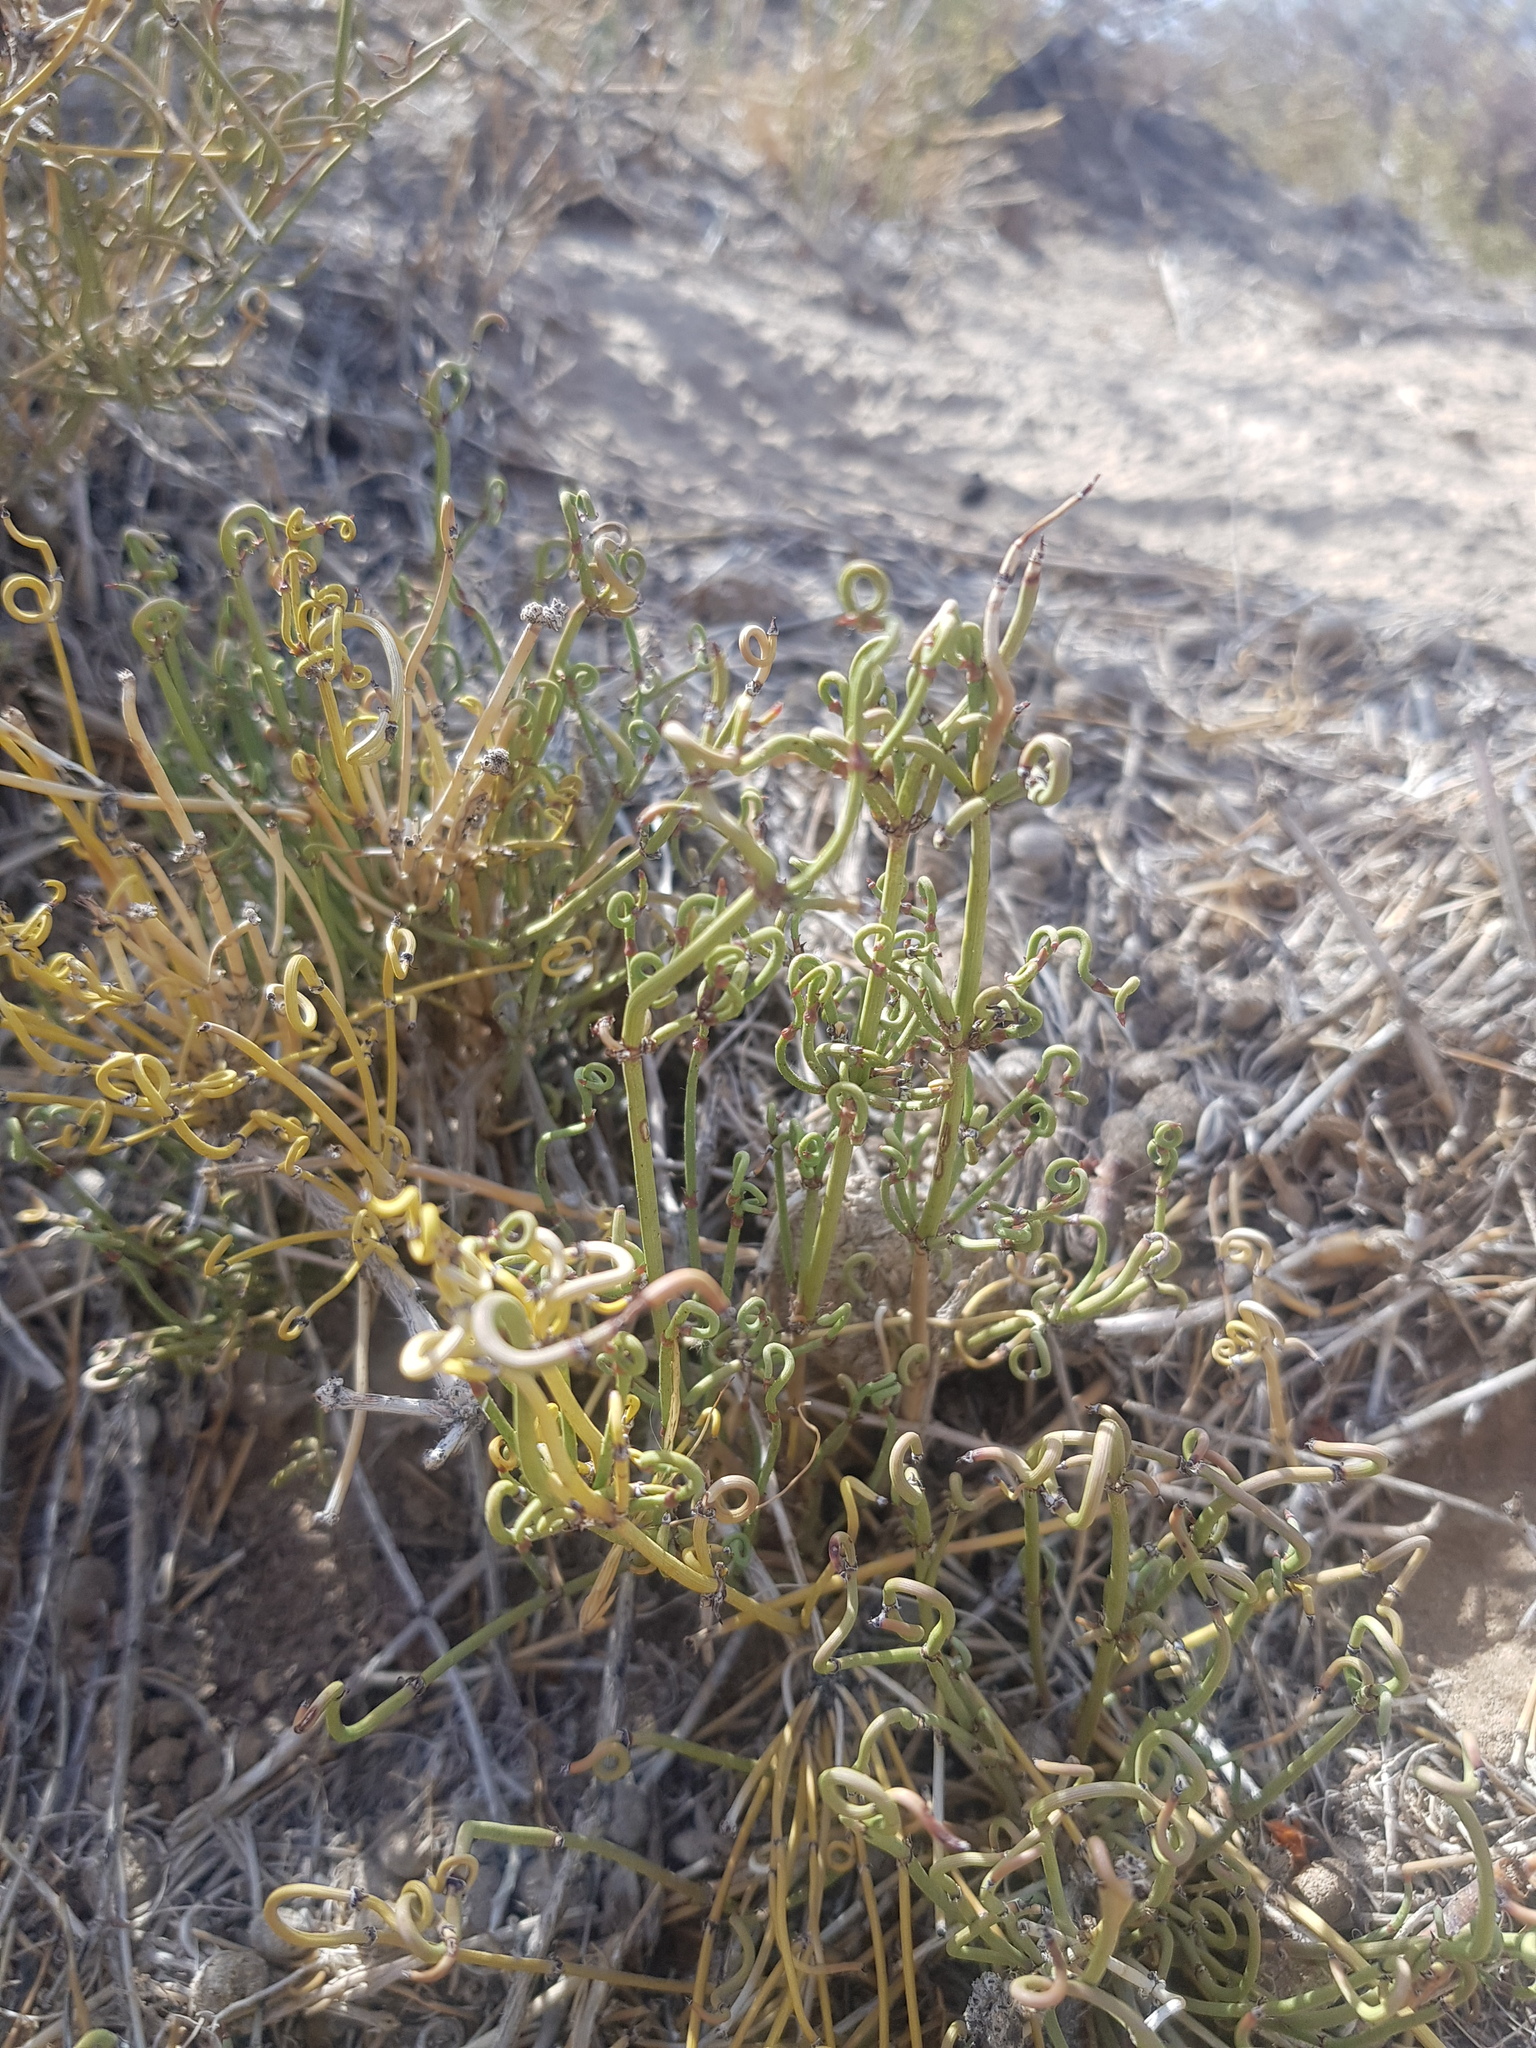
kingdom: Plantae
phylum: Tracheophyta
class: Gnetopsida
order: Ephedrales
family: Ephedraceae
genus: Ephedra
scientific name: Ephedra przewalskii
